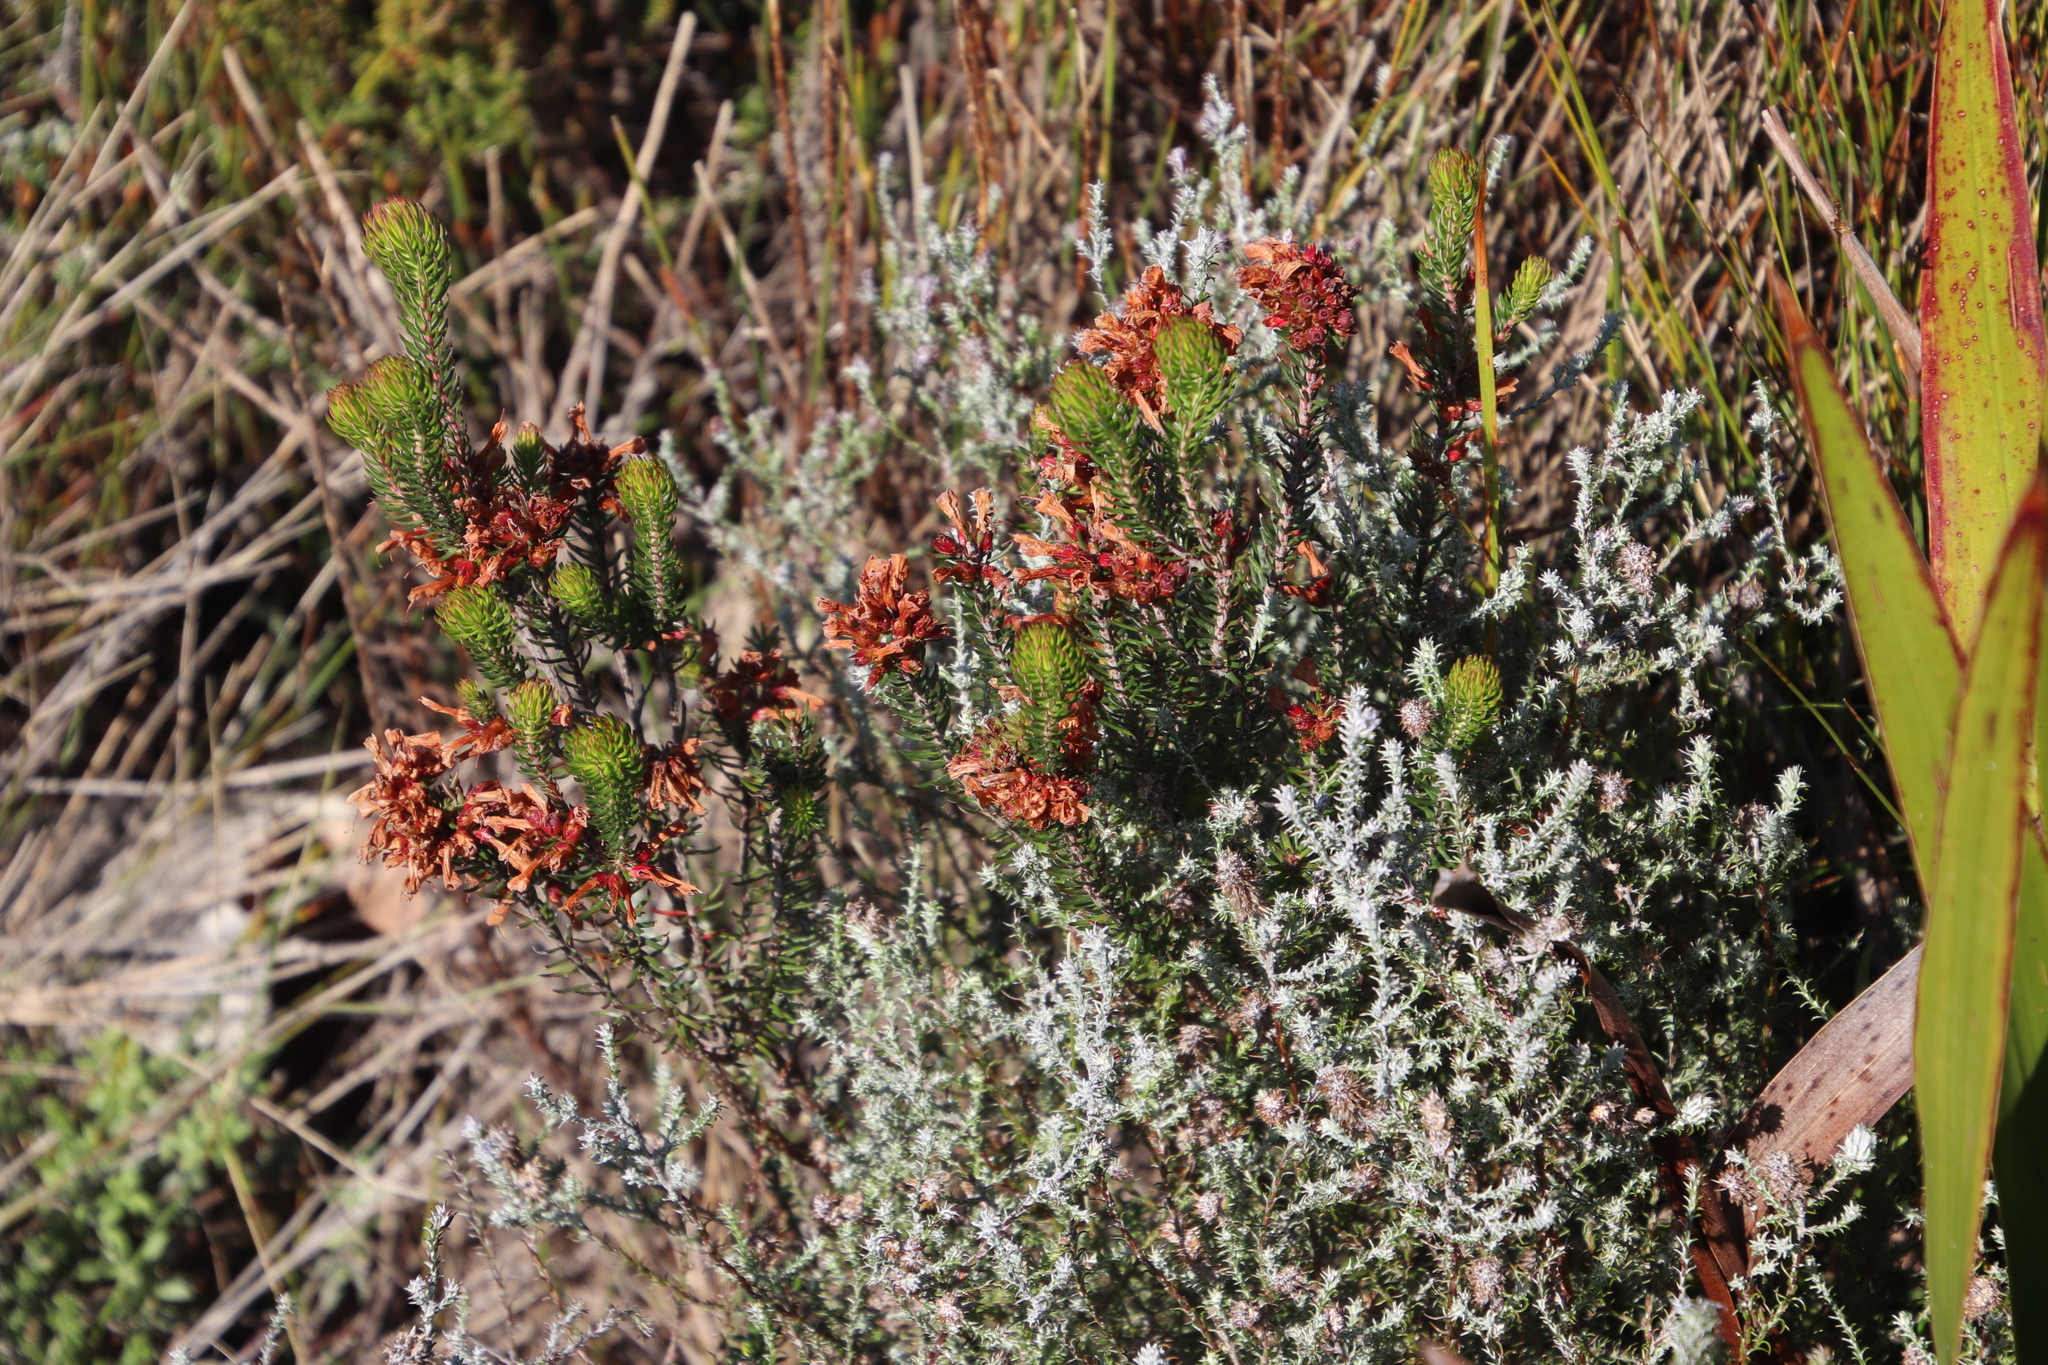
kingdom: Plantae
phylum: Tracheophyta
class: Magnoliopsida
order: Ericales
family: Ericaceae
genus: Erica
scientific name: Erica abietina
